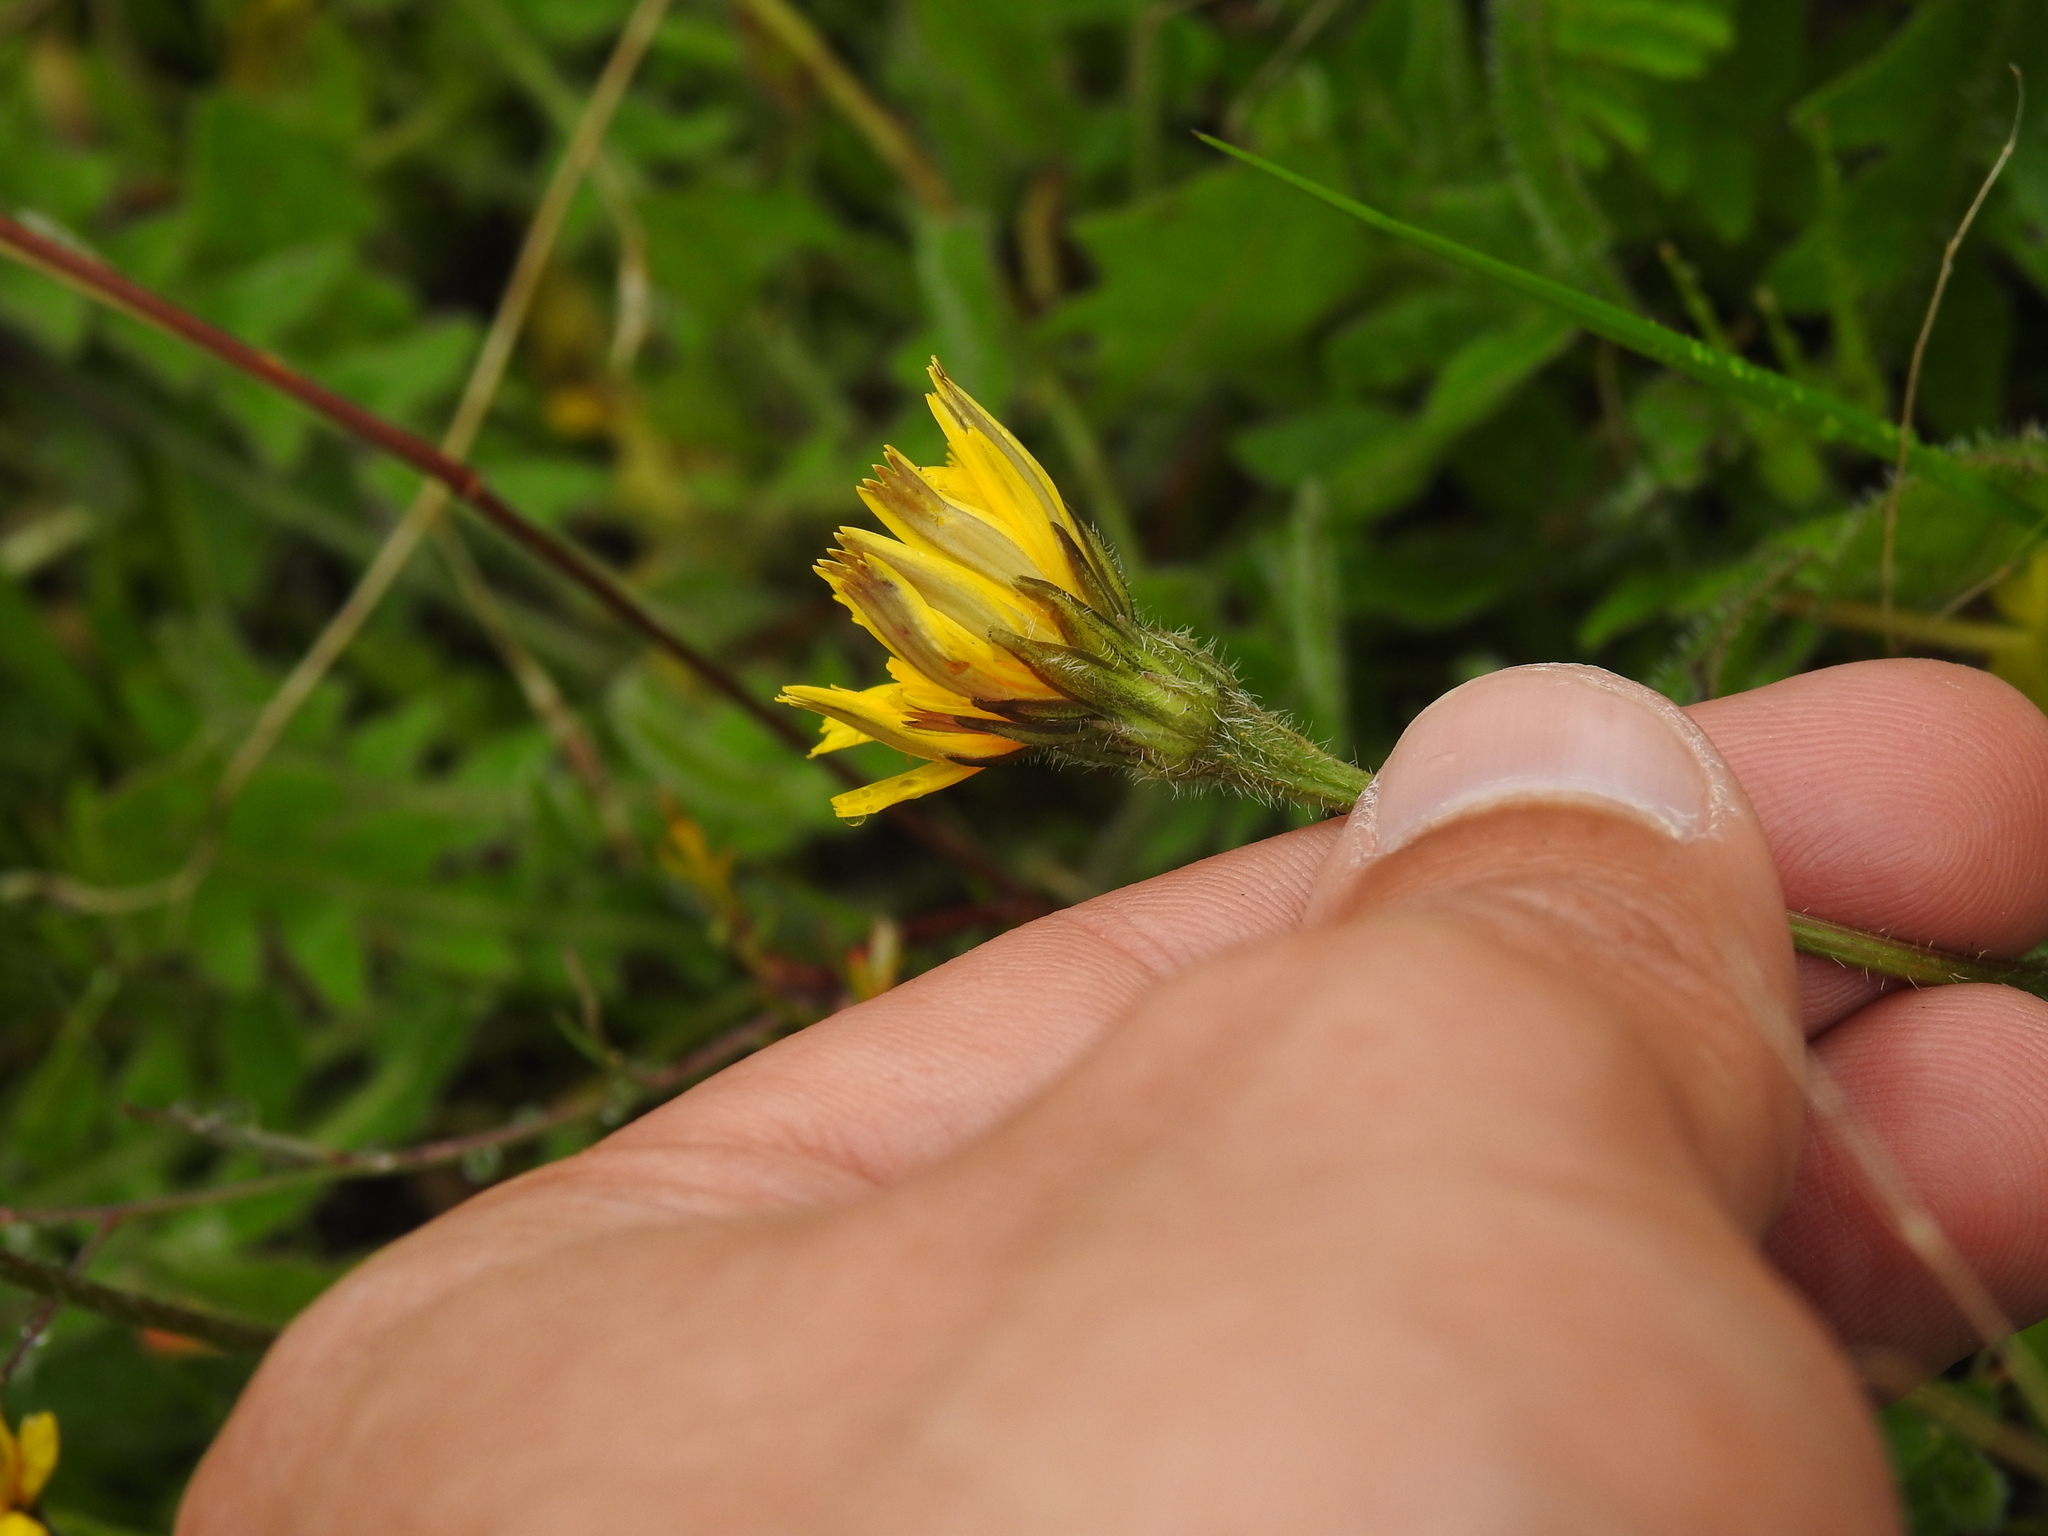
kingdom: Plantae
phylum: Tracheophyta
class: Magnoliopsida
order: Asterales
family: Asteraceae
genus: Leontodon
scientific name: Leontodon tuberosus
